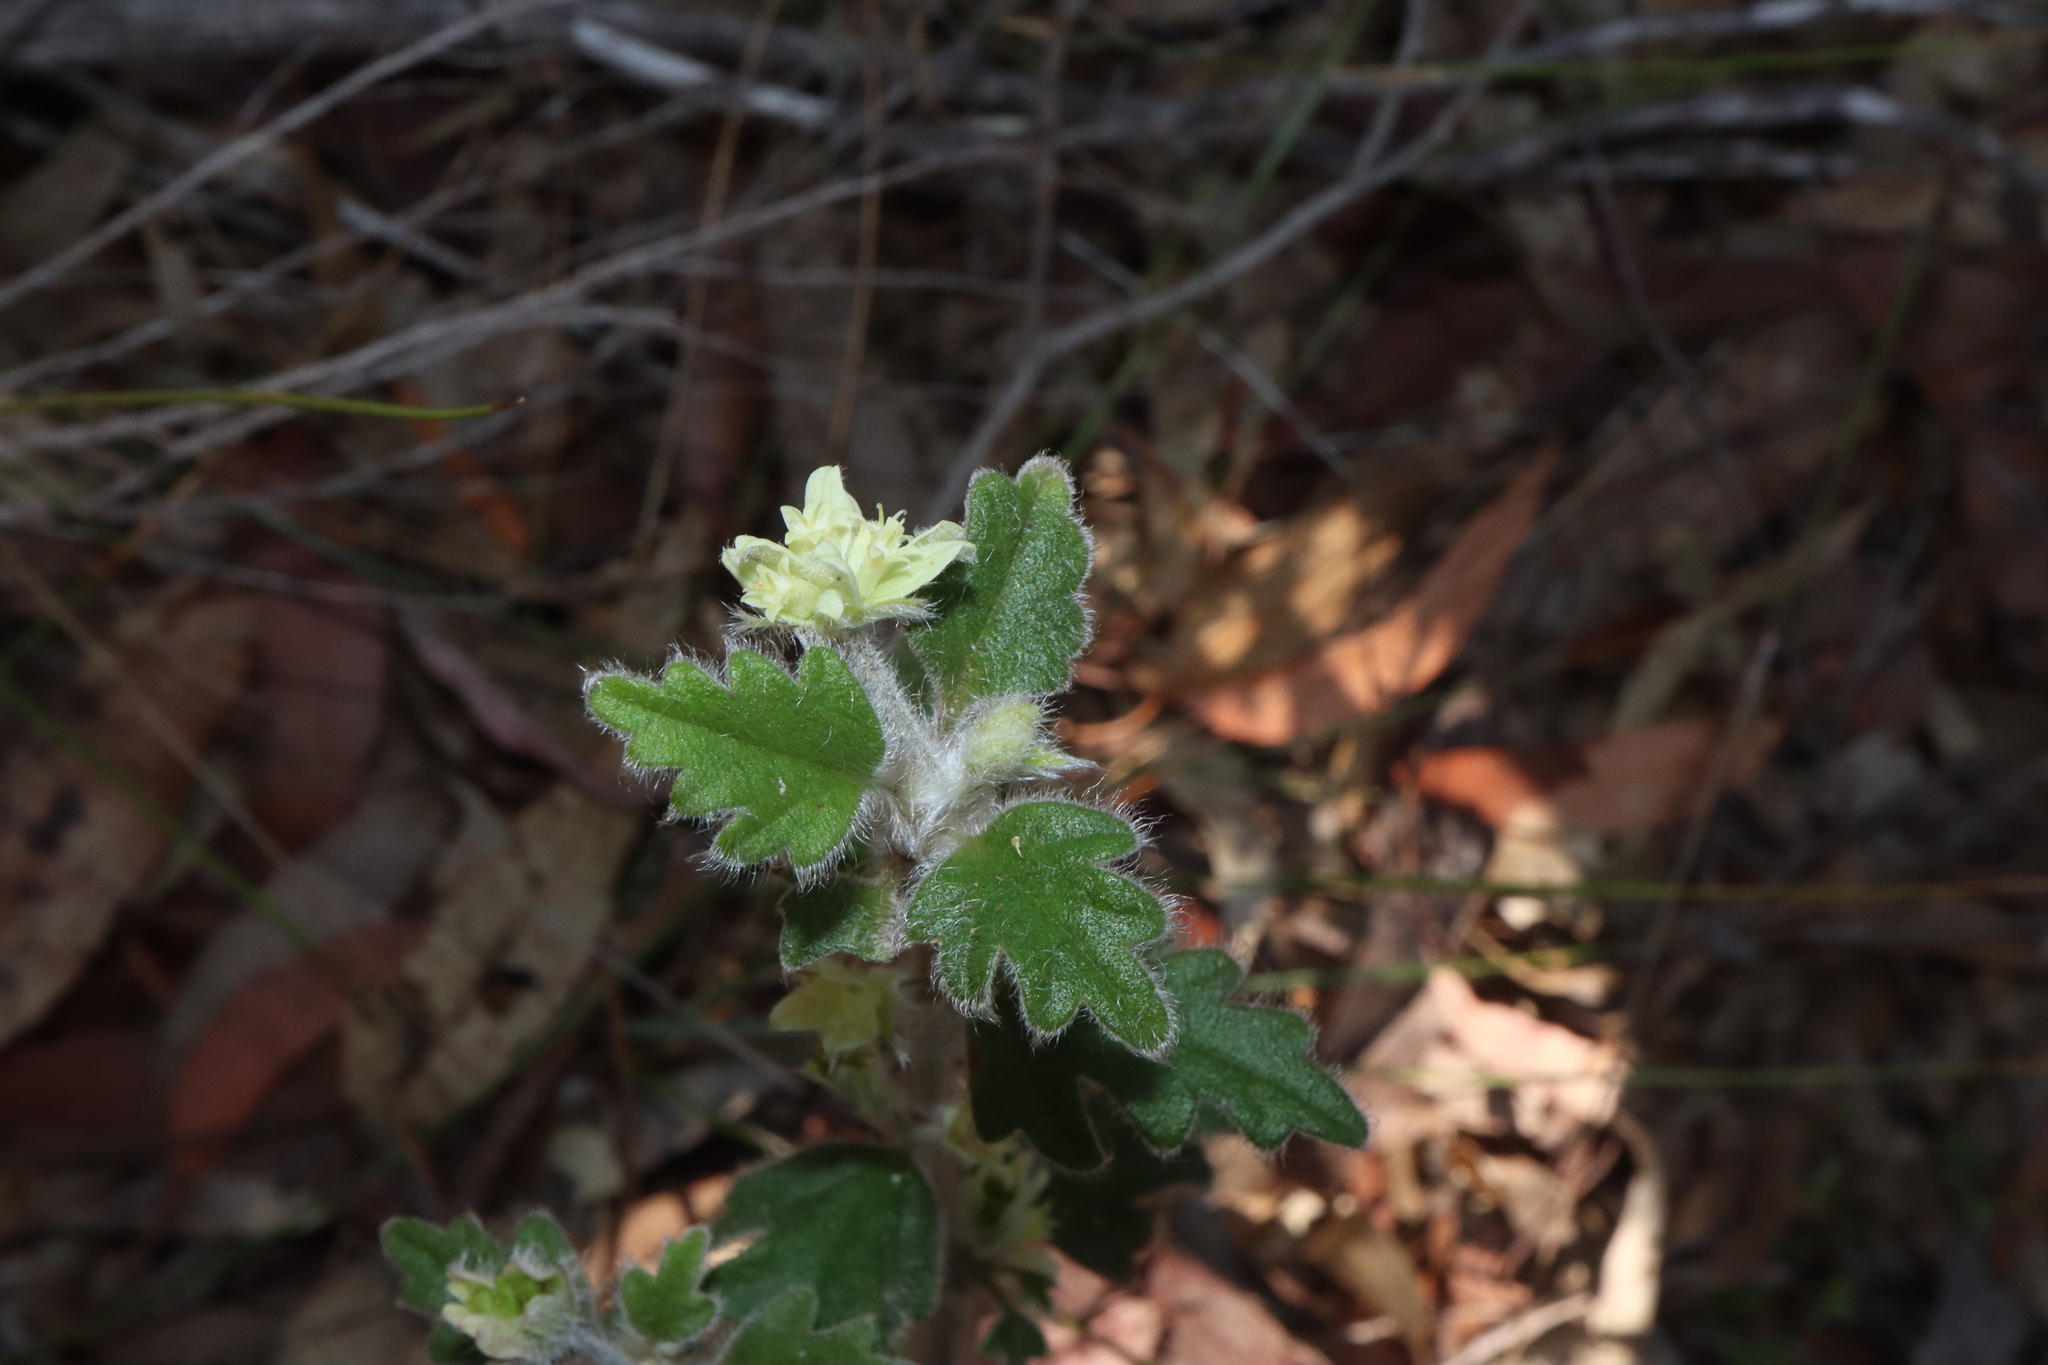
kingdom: Plantae
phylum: Tracheophyta
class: Magnoliopsida
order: Apiales
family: Apiaceae
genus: Xanthosia
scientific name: Xanthosia pilosa
